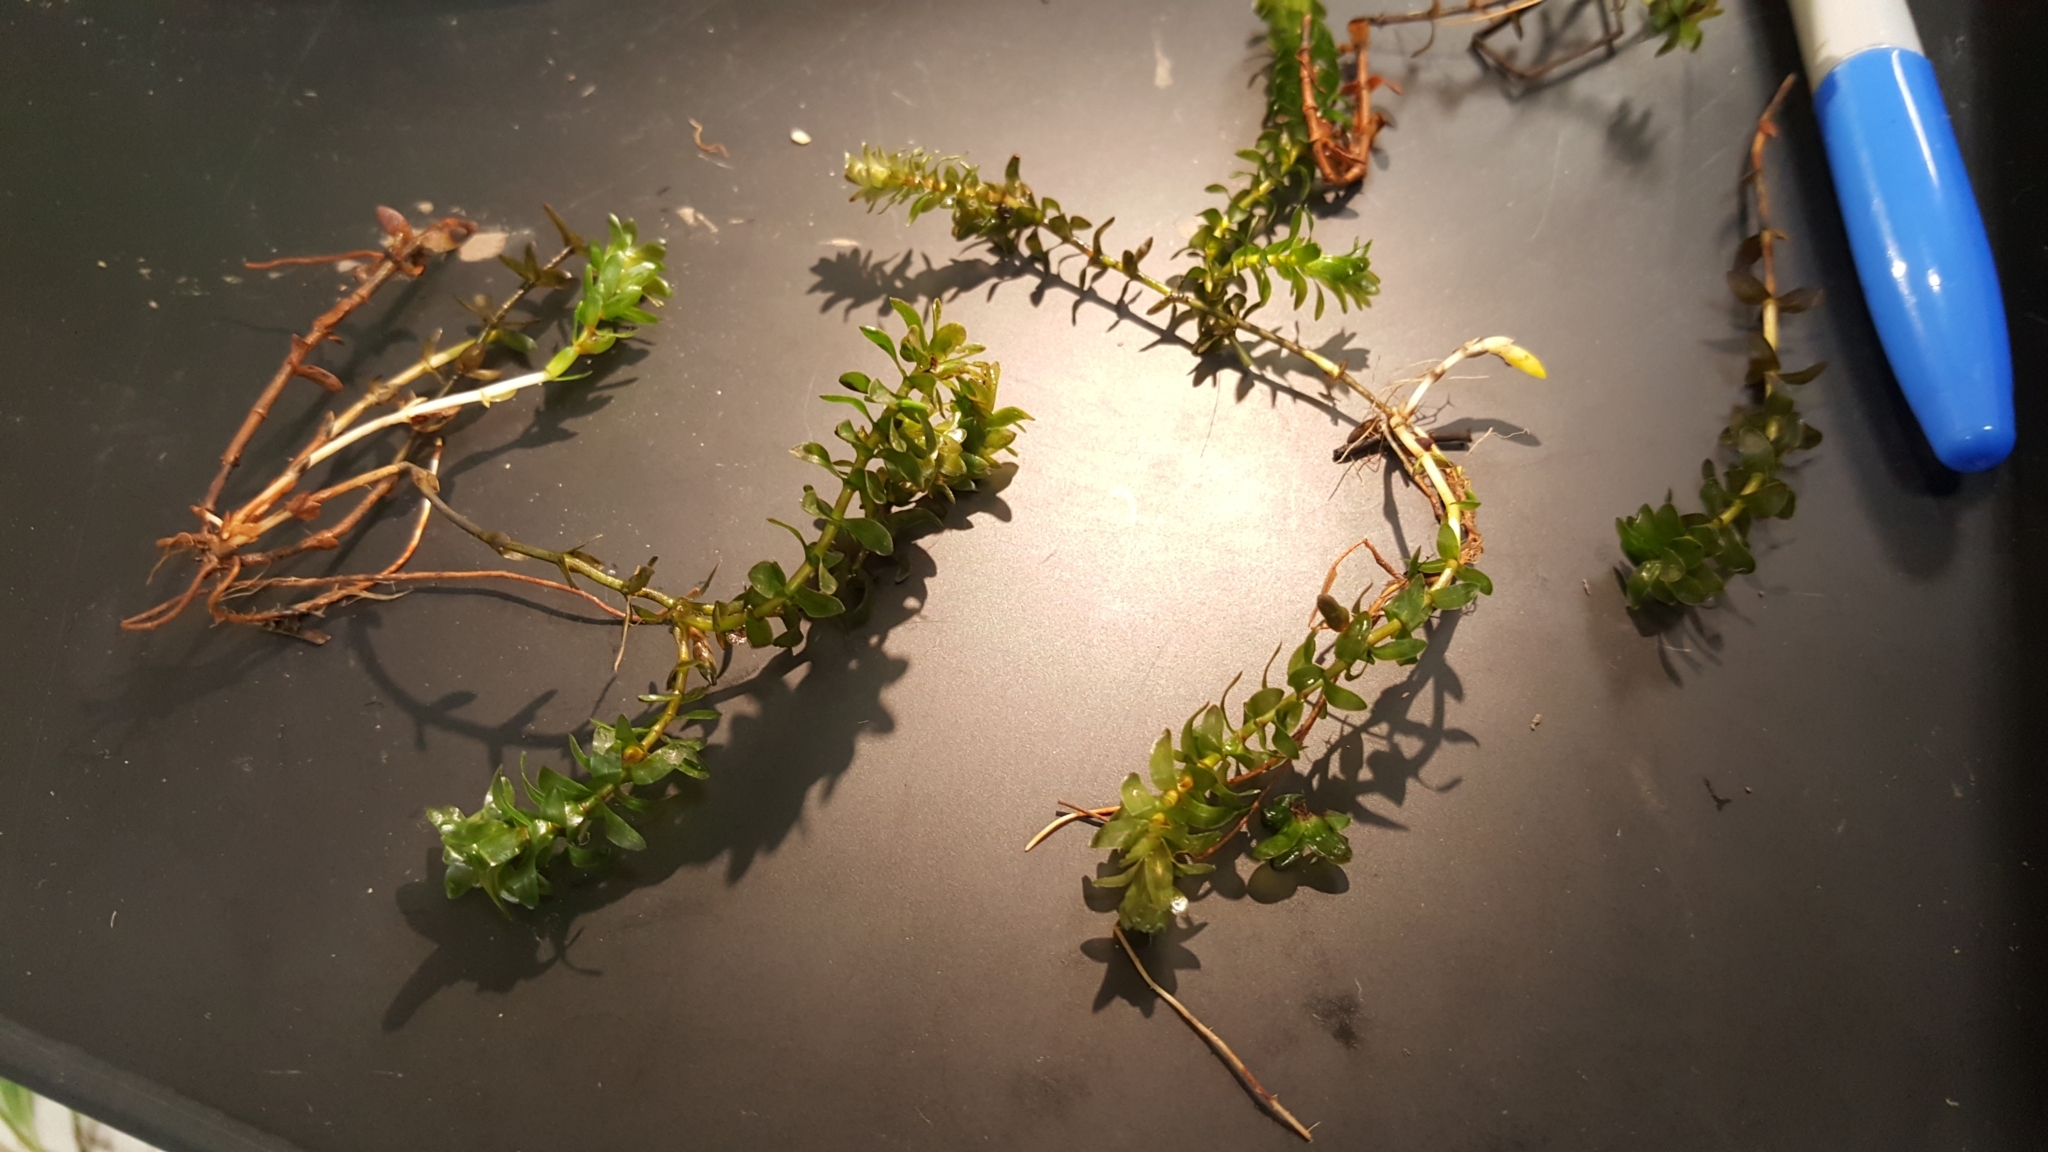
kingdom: Plantae
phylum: Tracheophyta
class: Liliopsida
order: Alismatales
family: Hydrocharitaceae
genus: Elodea
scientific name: Elodea canadensis
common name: Canadian waterweed
